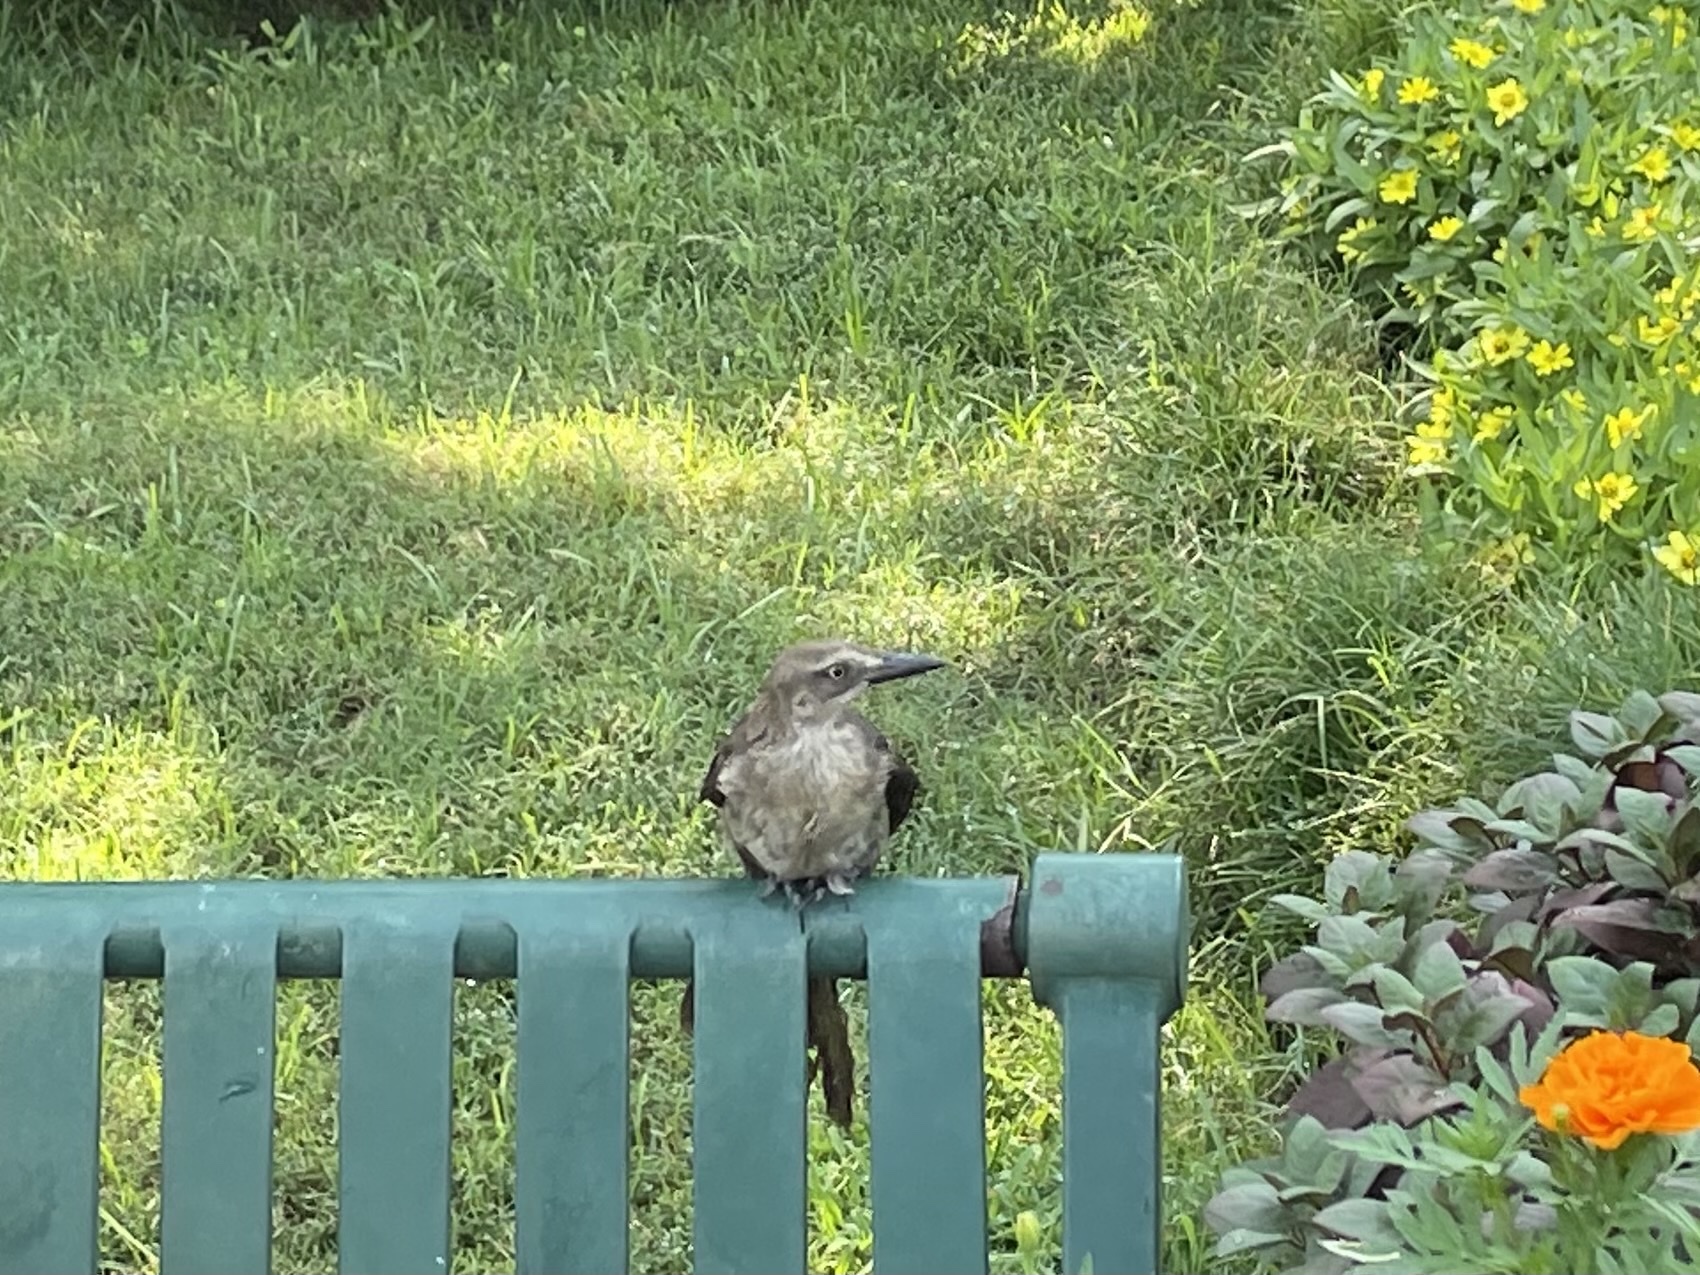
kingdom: Animalia
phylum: Chordata
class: Aves
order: Passeriformes
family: Icteridae
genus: Quiscalus
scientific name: Quiscalus mexicanus
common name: Great-tailed grackle
